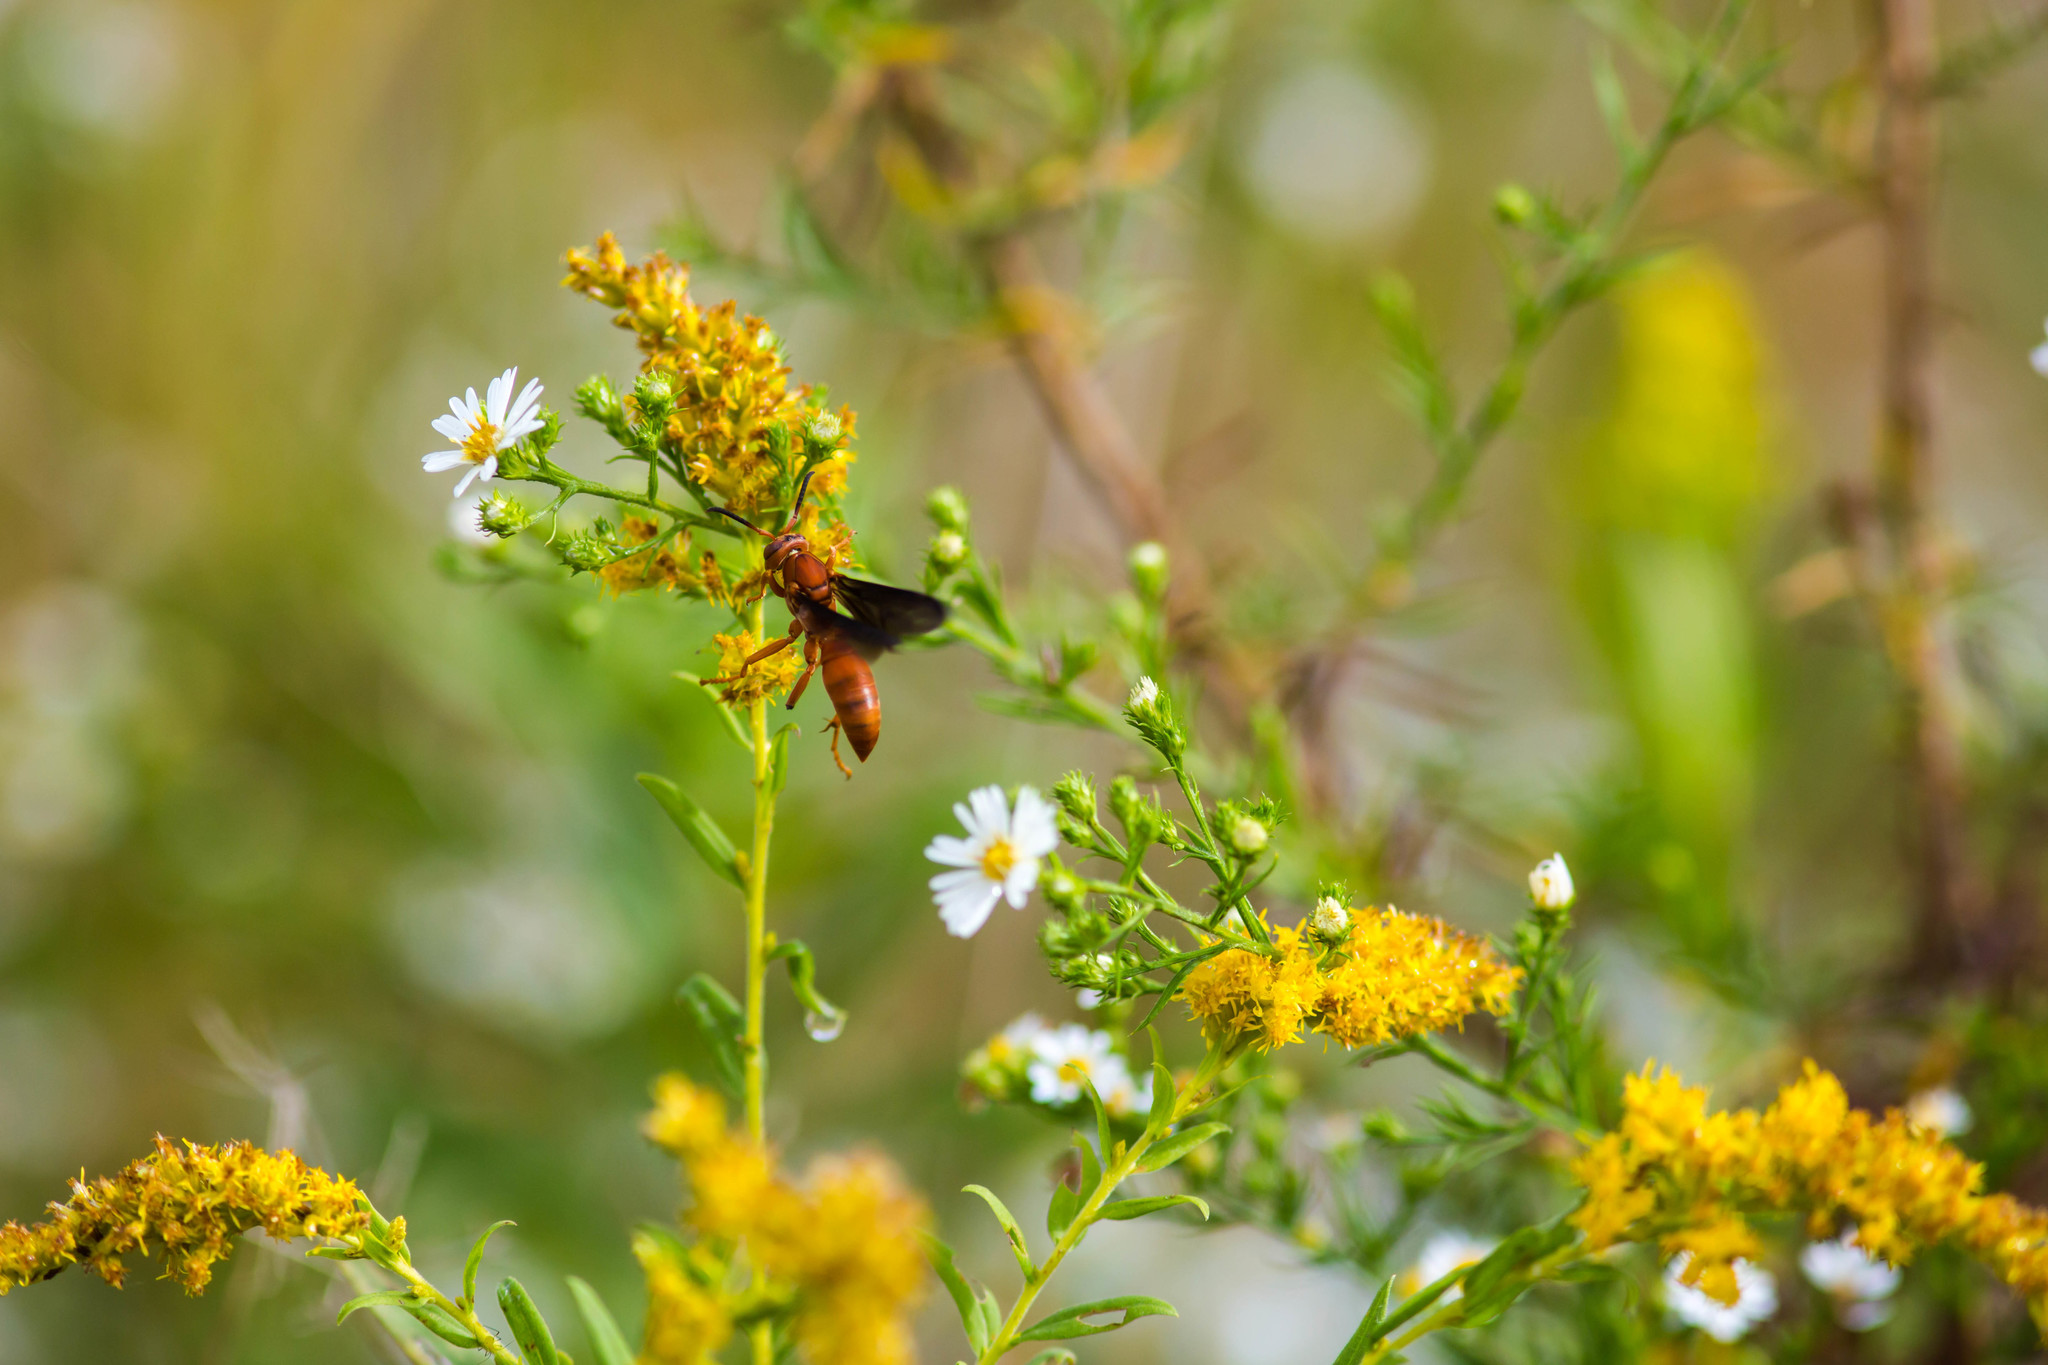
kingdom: Animalia
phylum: Arthropoda
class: Insecta
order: Hymenoptera
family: Eumenidae
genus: Polistes
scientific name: Polistes
